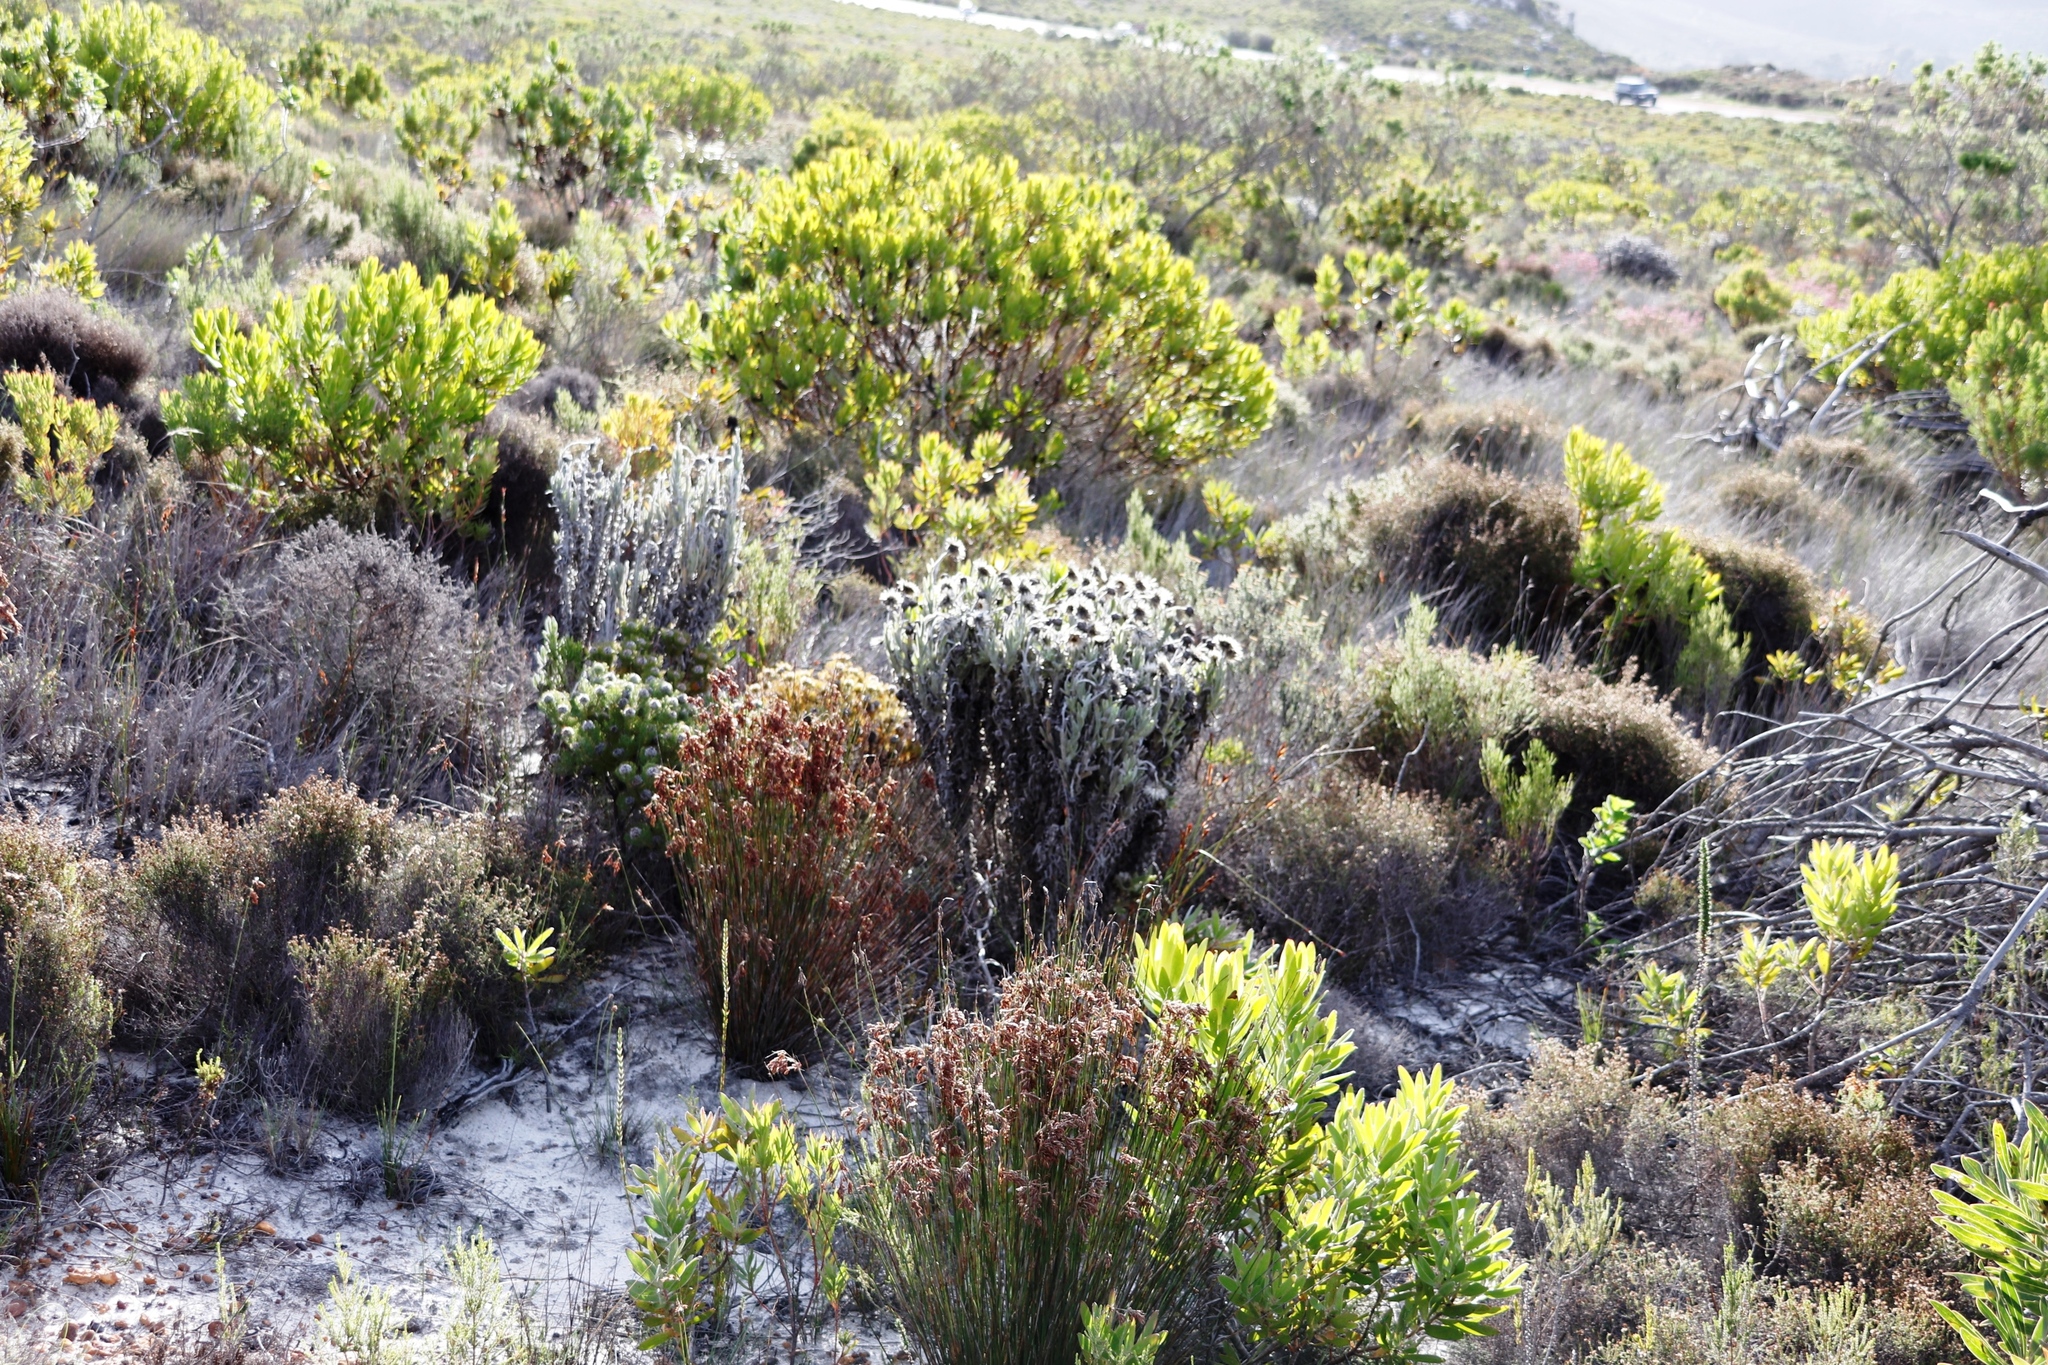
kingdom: Plantae
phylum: Tracheophyta
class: Magnoliopsida
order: Asterales
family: Asteraceae
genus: Syncarpha
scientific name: Syncarpha vestita
